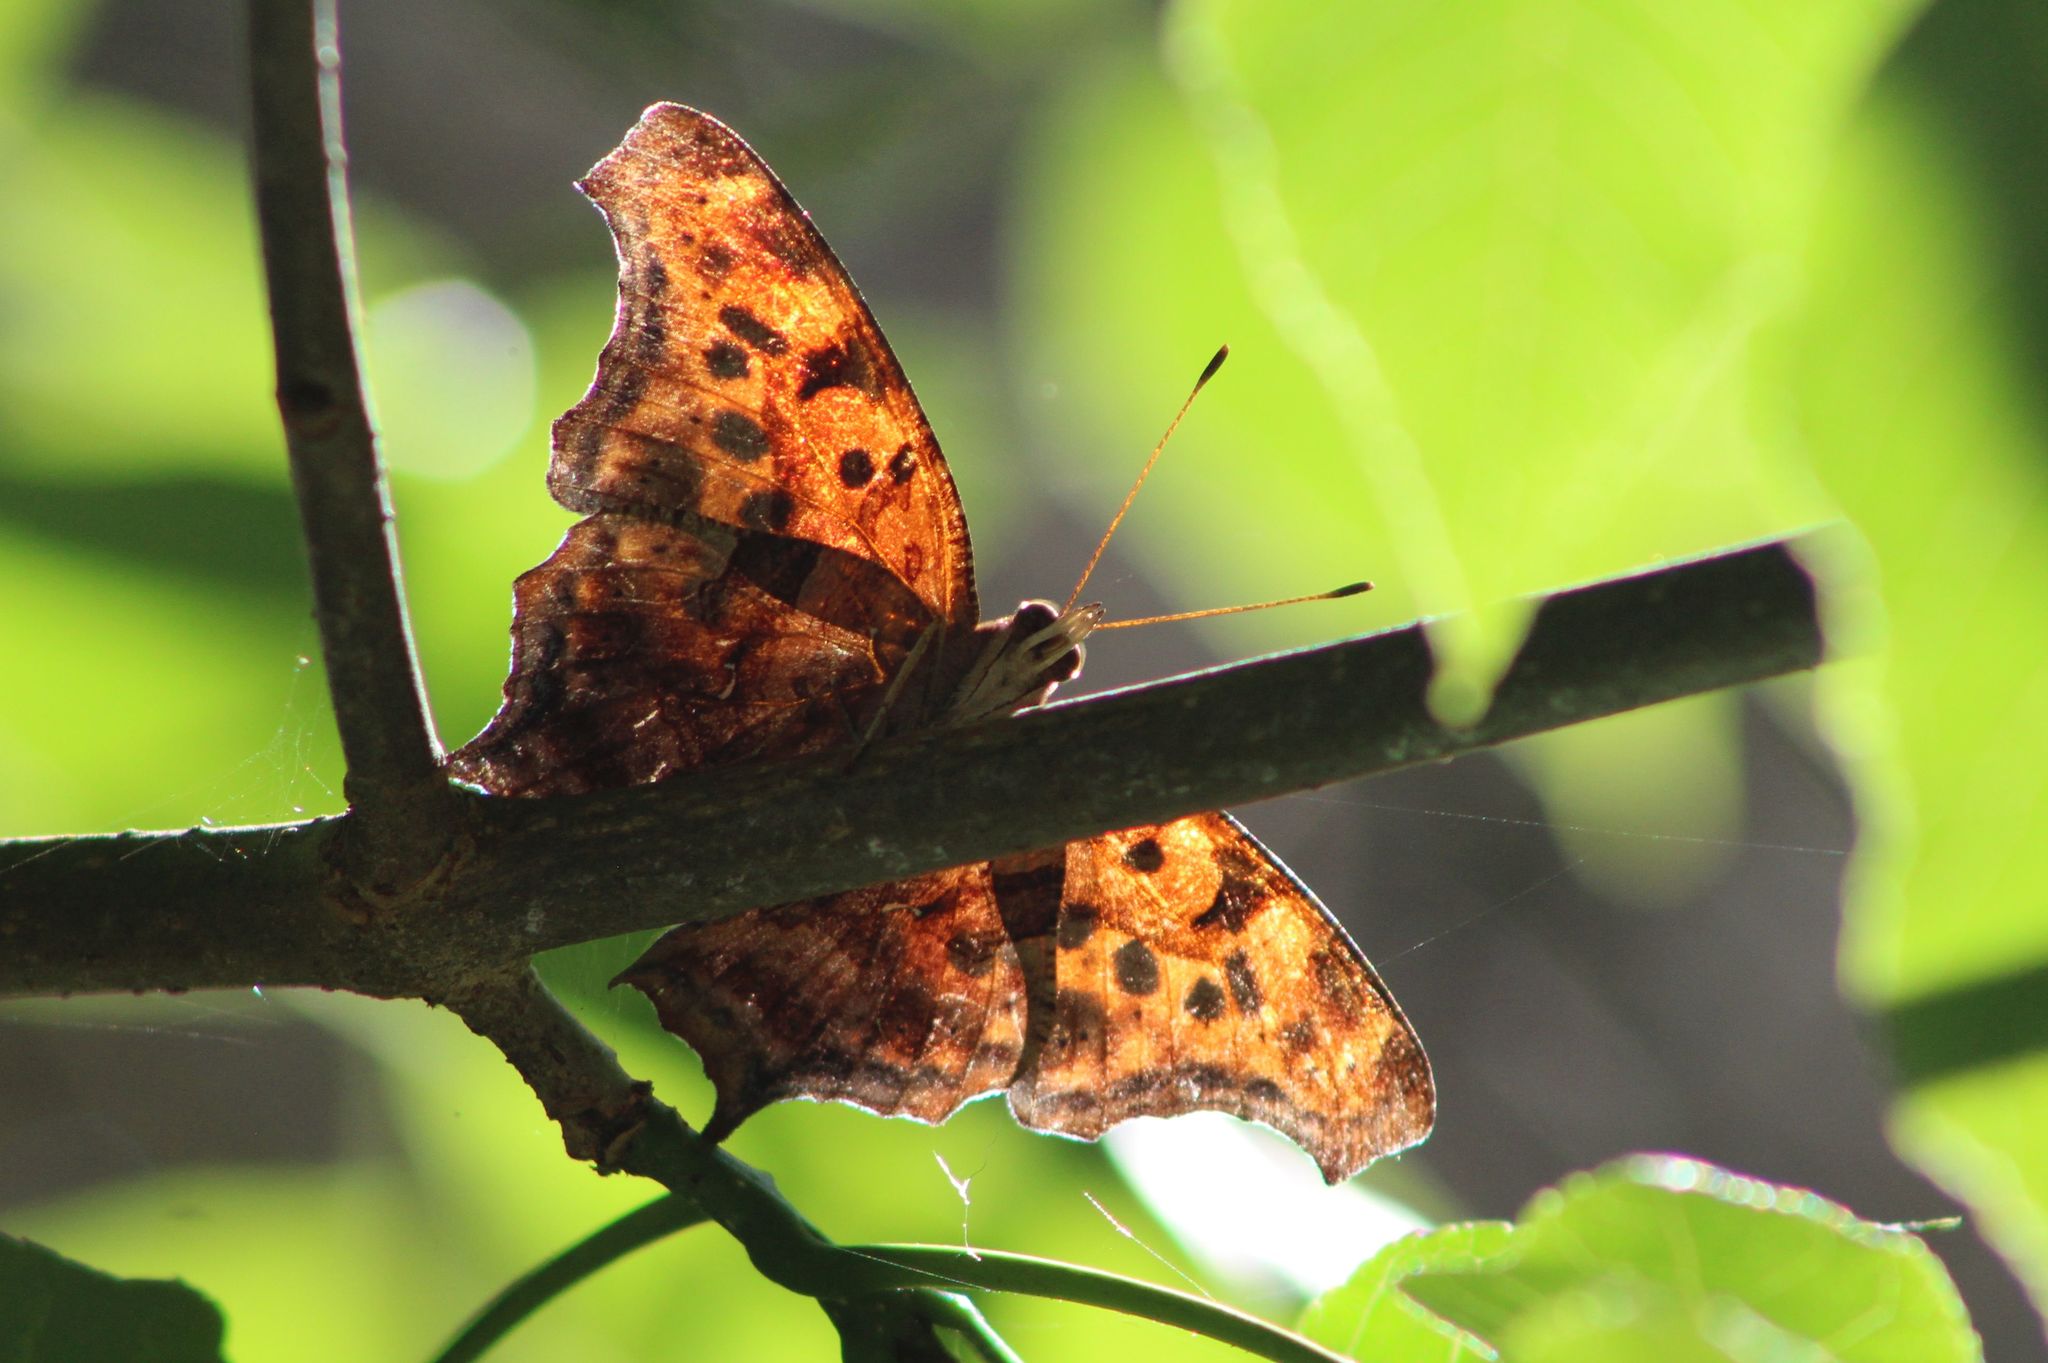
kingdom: Animalia
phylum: Arthropoda
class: Insecta
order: Lepidoptera
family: Nymphalidae
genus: Polygonia
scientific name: Polygonia interrogationis
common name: Question mark
